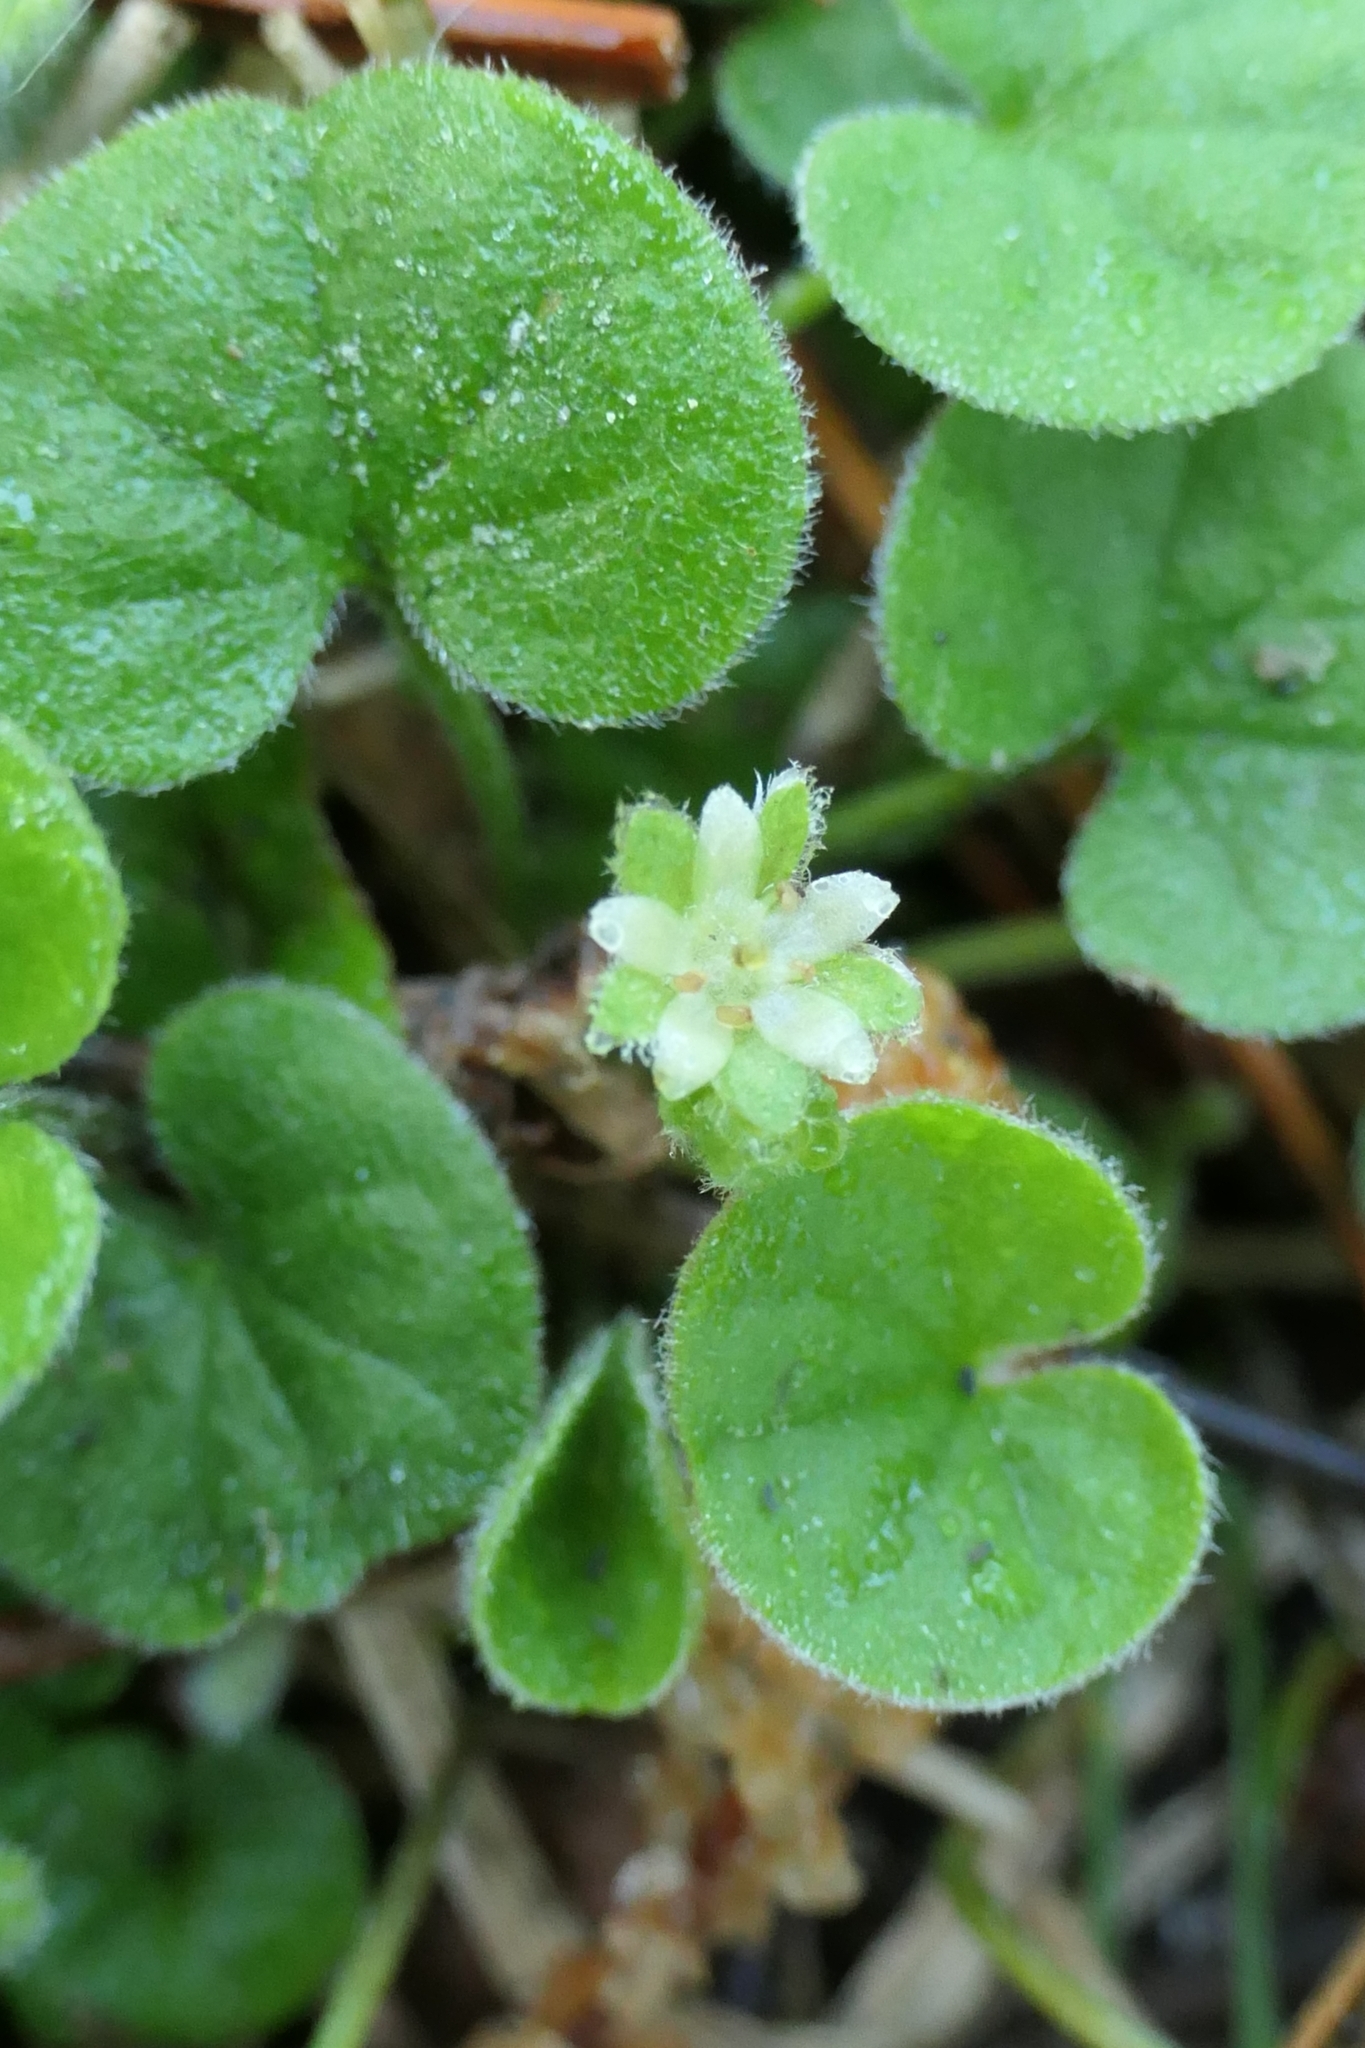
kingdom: Plantae
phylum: Tracheophyta
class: Magnoliopsida
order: Solanales
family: Convolvulaceae
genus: Dichondra
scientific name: Dichondra repens
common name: Kidneyweed
